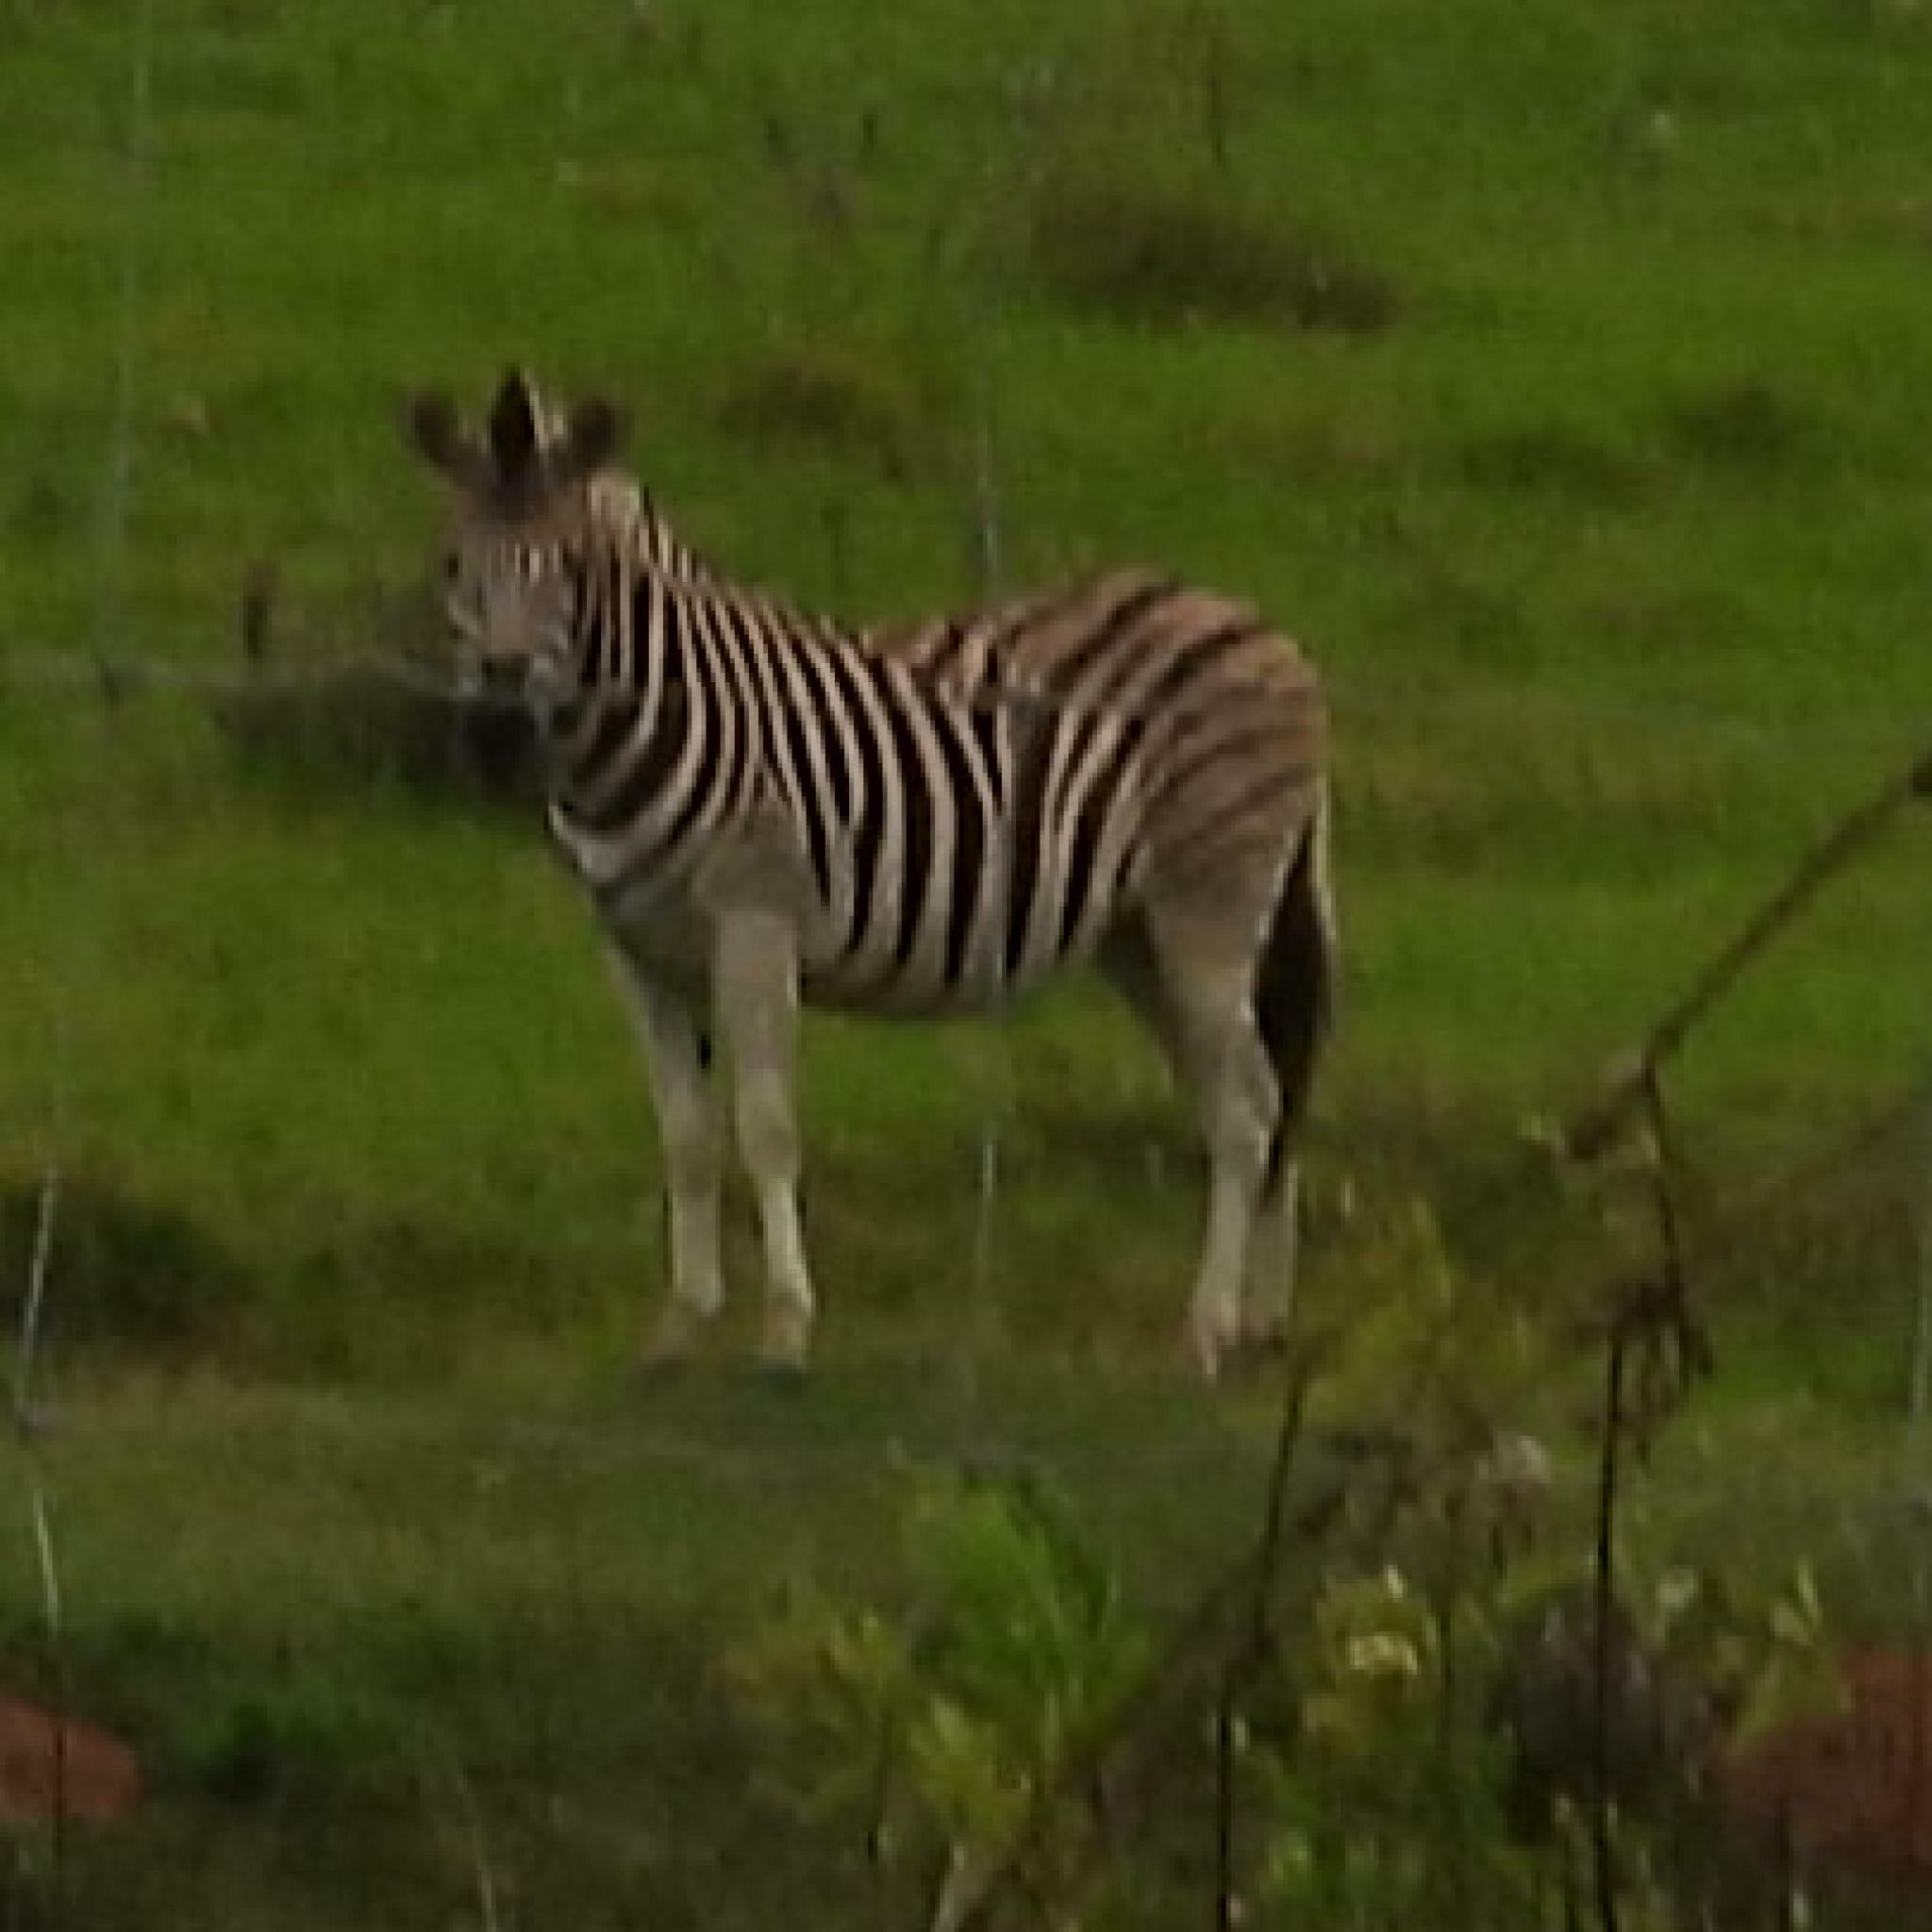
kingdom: Animalia
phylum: Chordata
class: Mammalia
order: Perissodactyla
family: Equidae
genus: Equus
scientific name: Equus quagga
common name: Plains zebra
